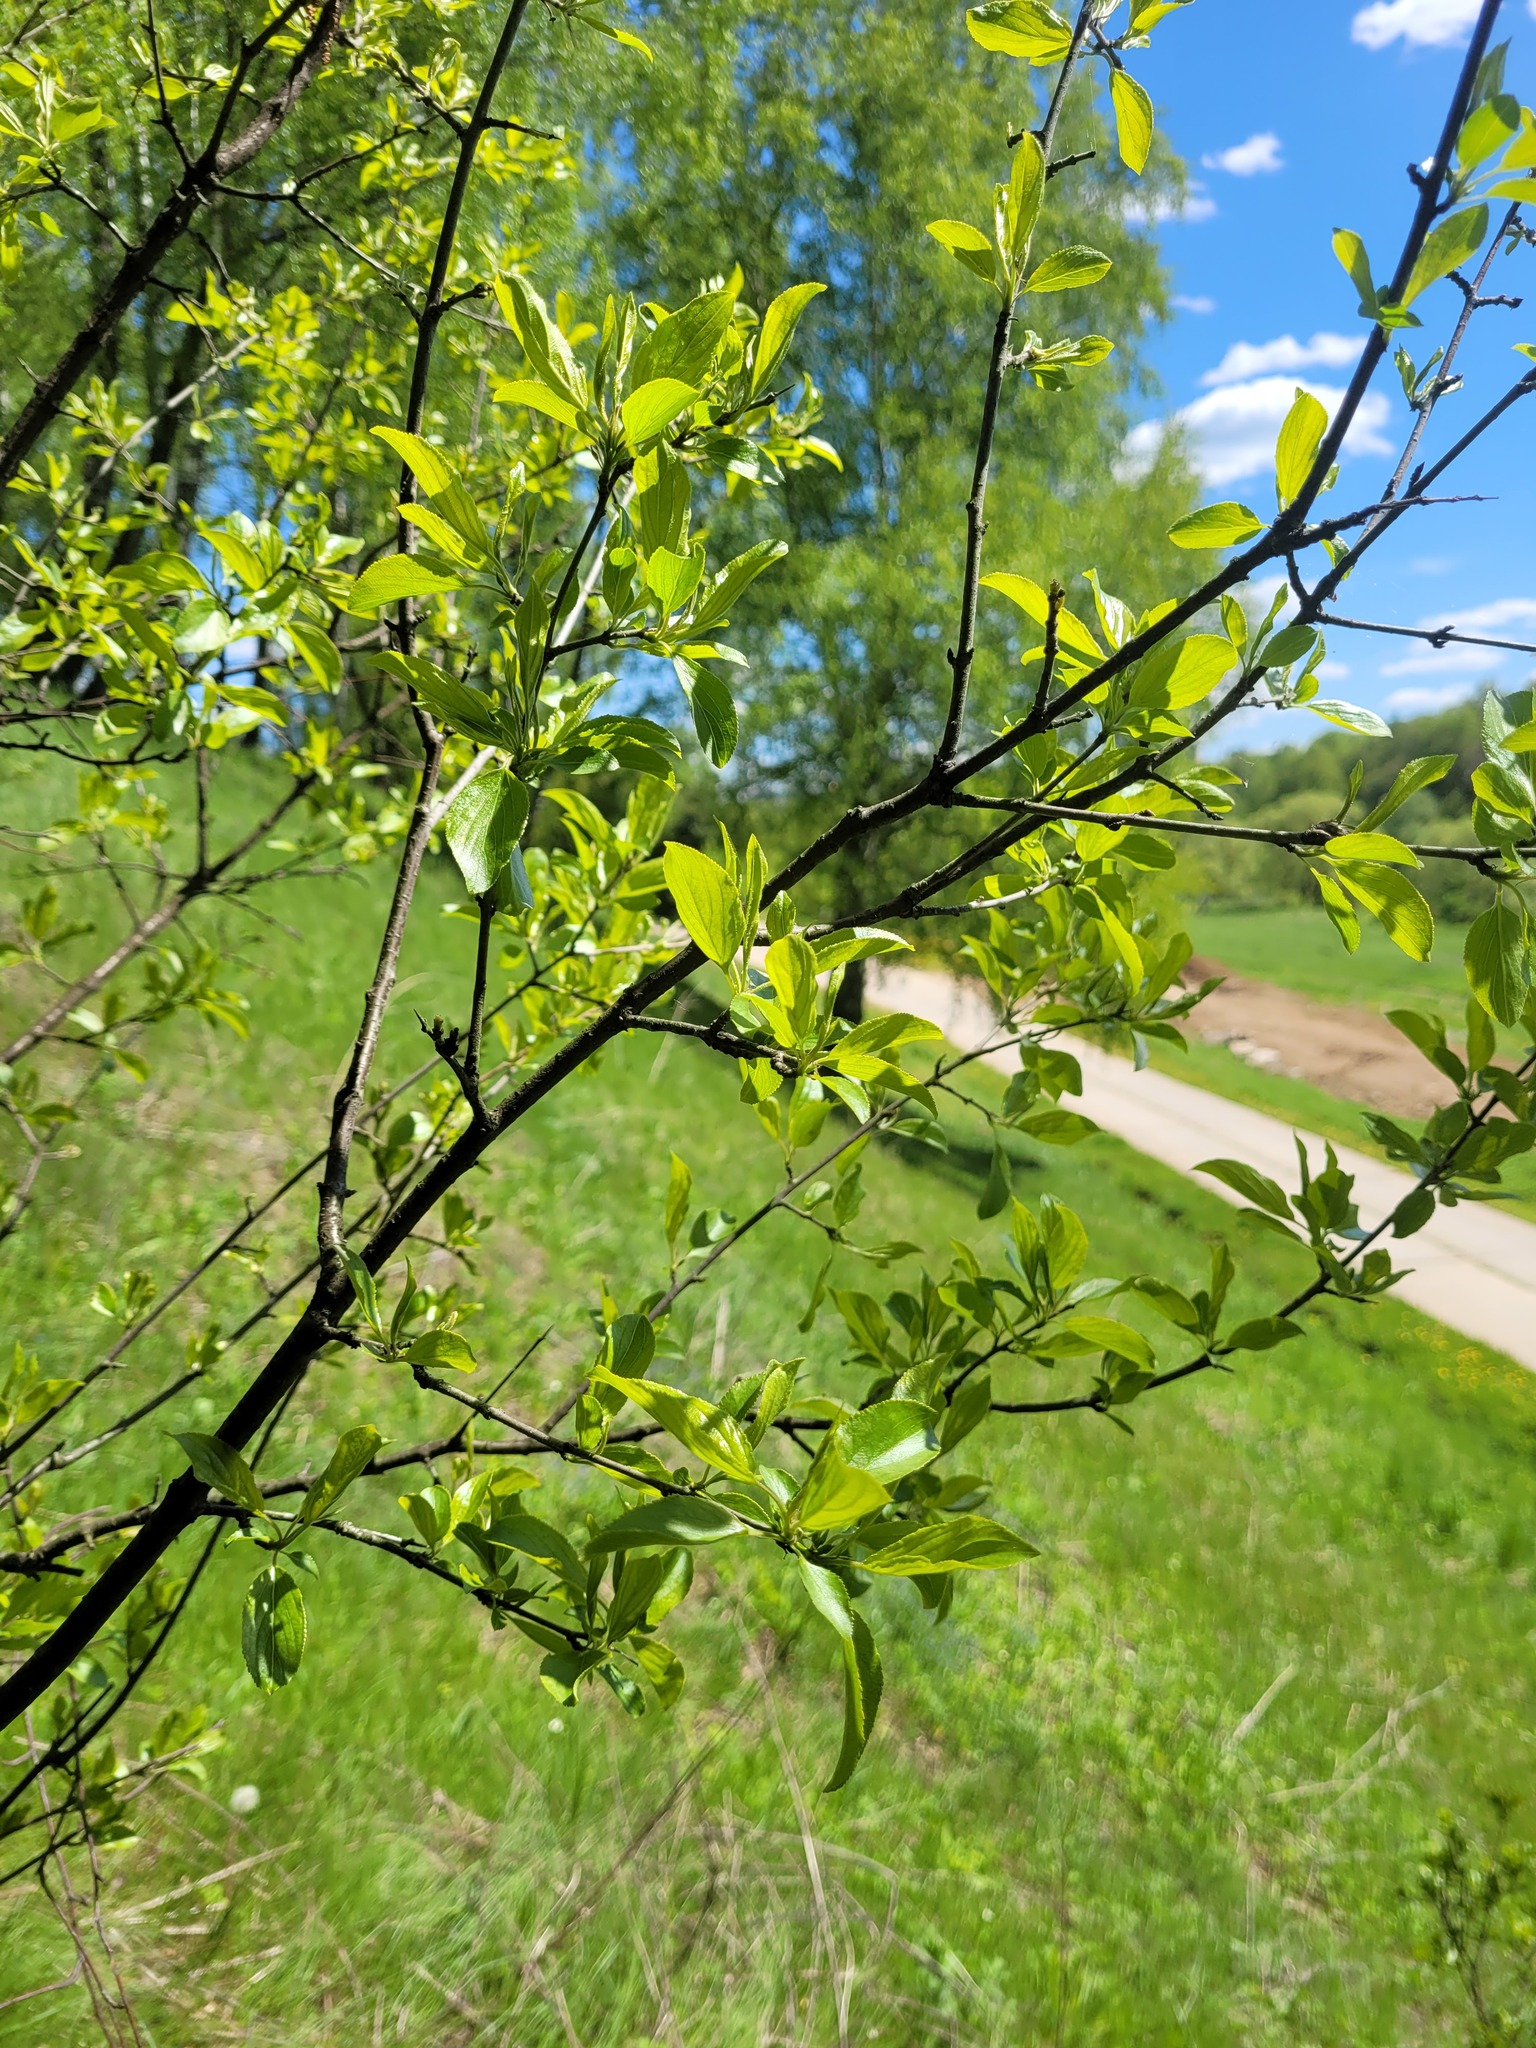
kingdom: Plantae
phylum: Tracheophyta
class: Magnoliopsida
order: Rosales
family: Rhamnaceae
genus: Rhamnus
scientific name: Rhamnus cathartica
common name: Common buckthorn
